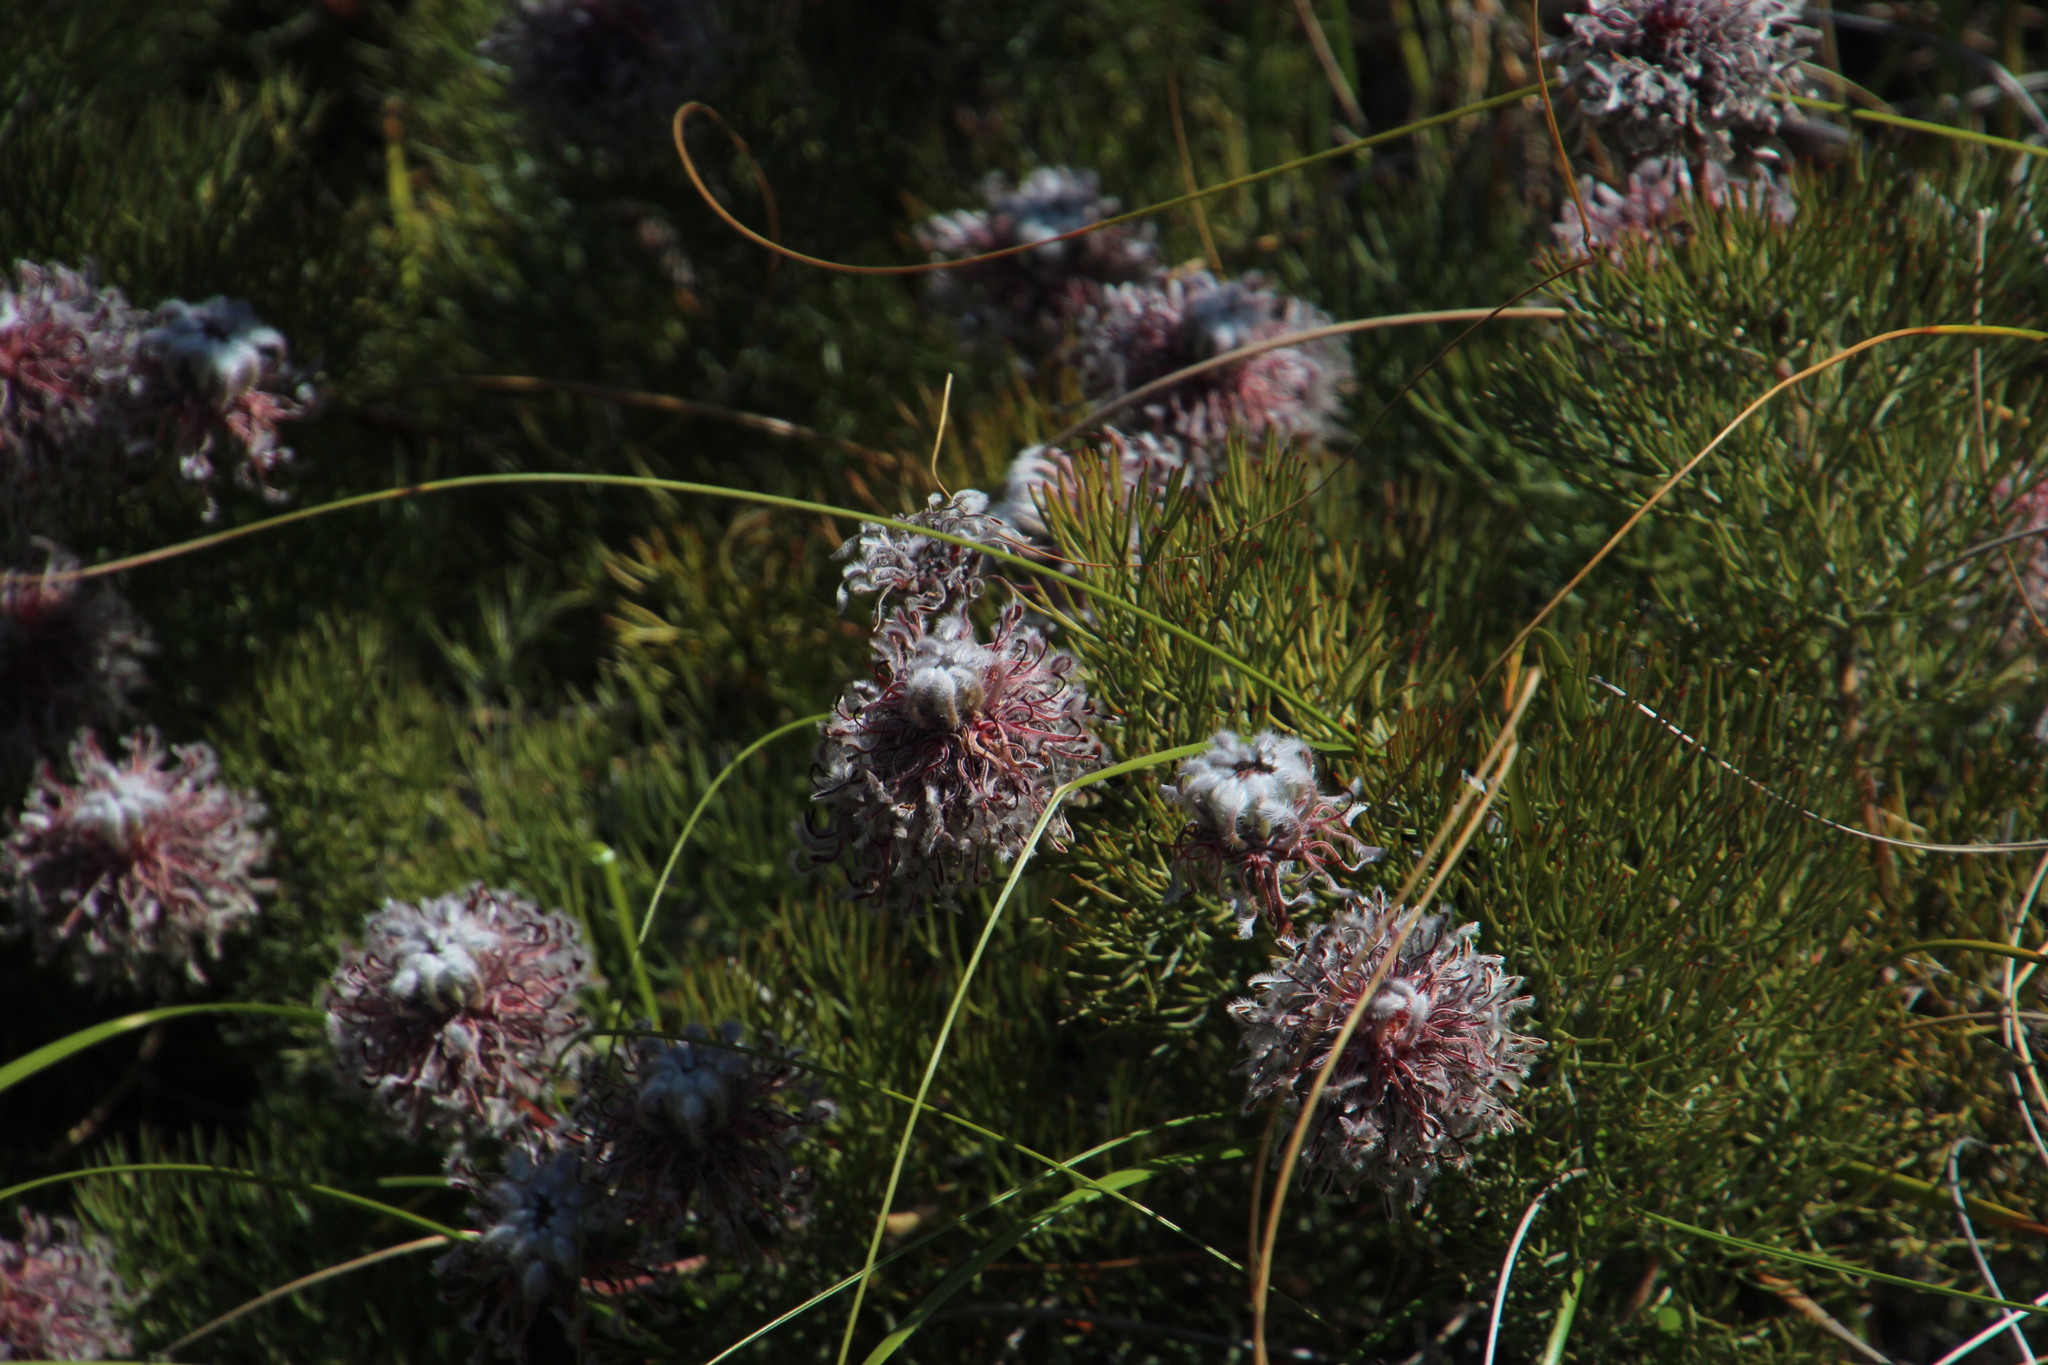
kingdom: Plantae
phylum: Tracheophyta
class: Magnoliopsida
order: Proteales
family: Proteaceae
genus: Serruria
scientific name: Serruria pedunculata
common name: Fan-leaf spiderhead
